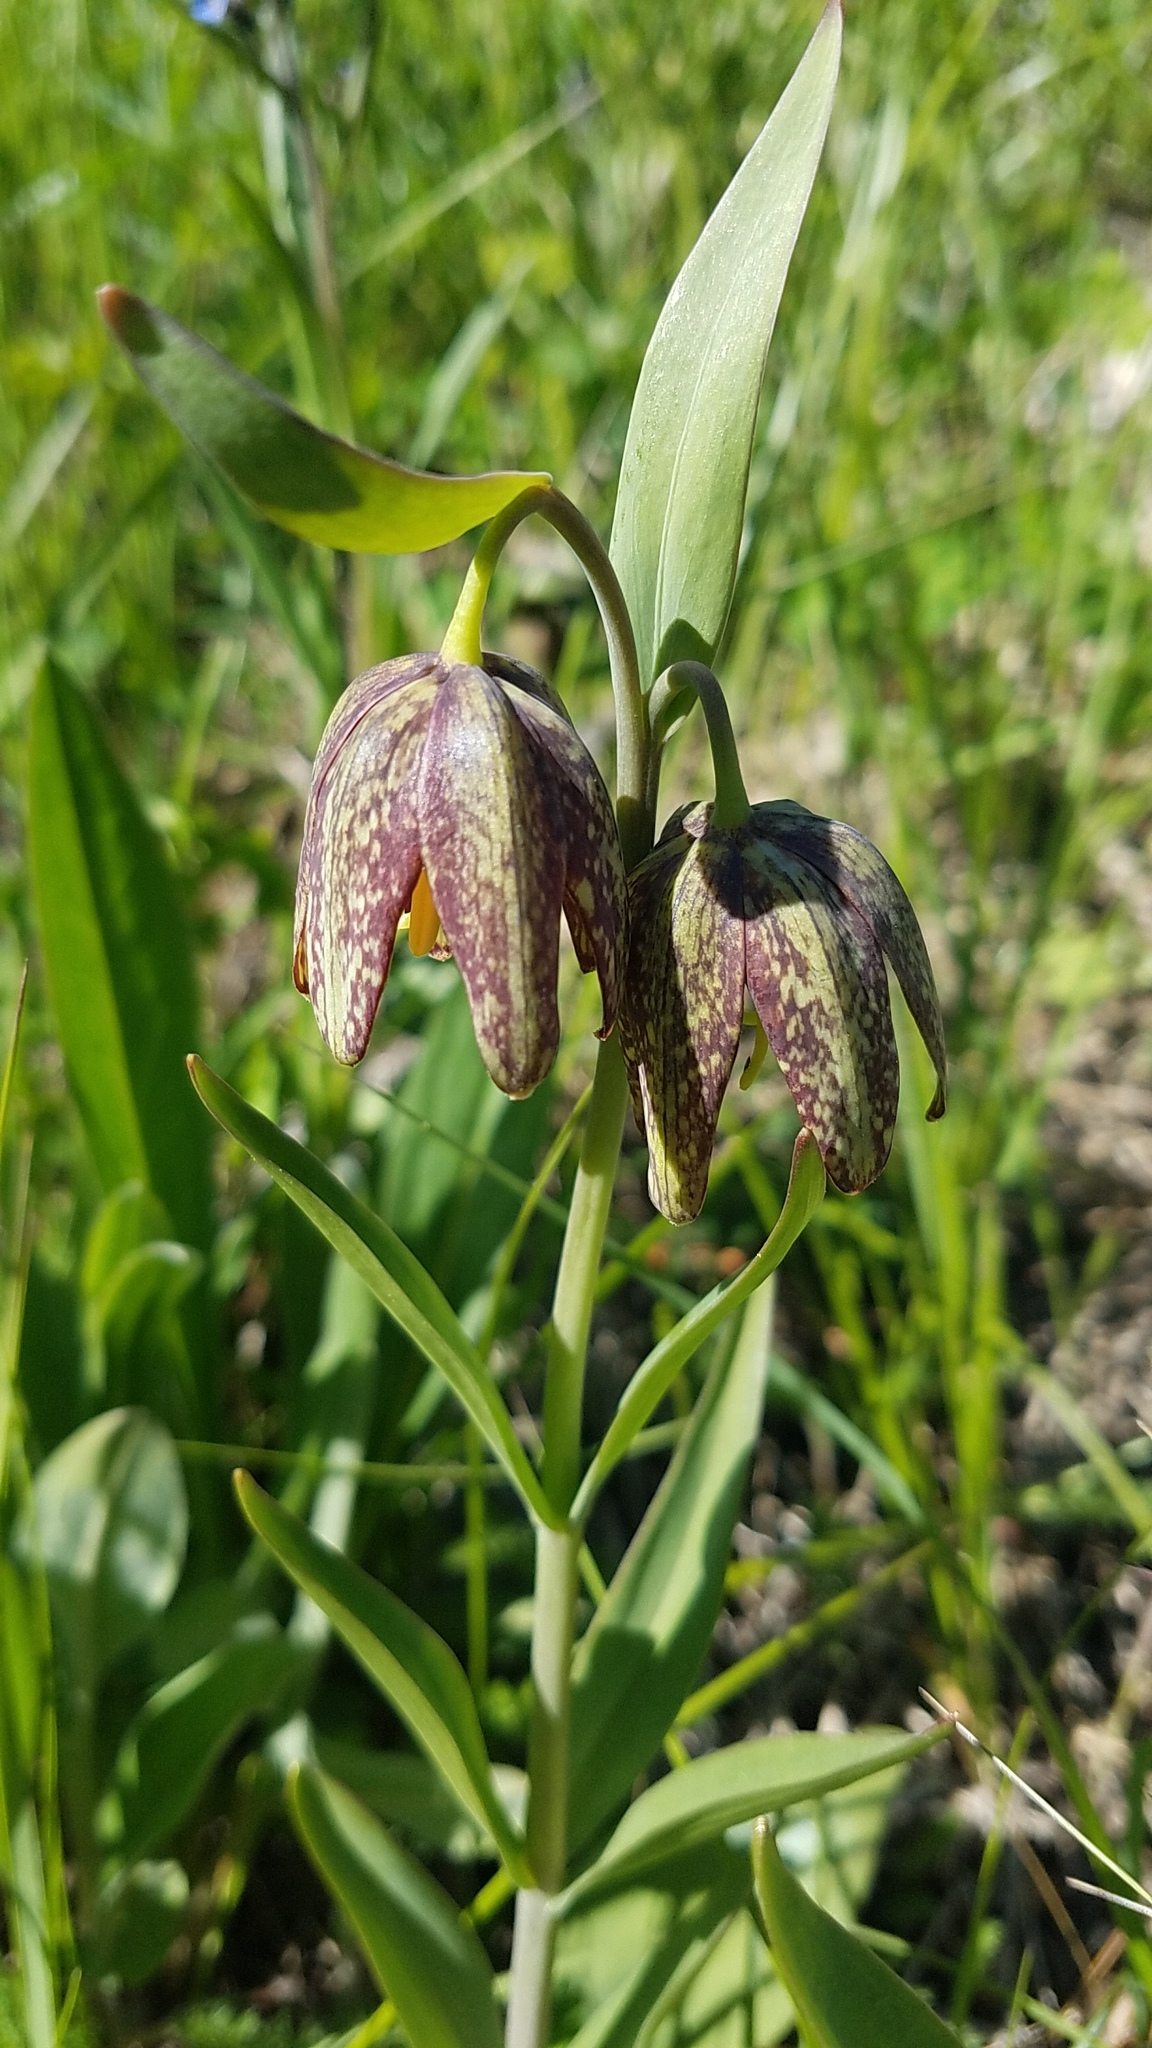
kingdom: Plantae
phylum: Tracheophyta
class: Liliopsida
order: Liliales
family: Liliaceae
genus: Fritillaria
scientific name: Fritillaria affinis
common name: Ojai fritillary
